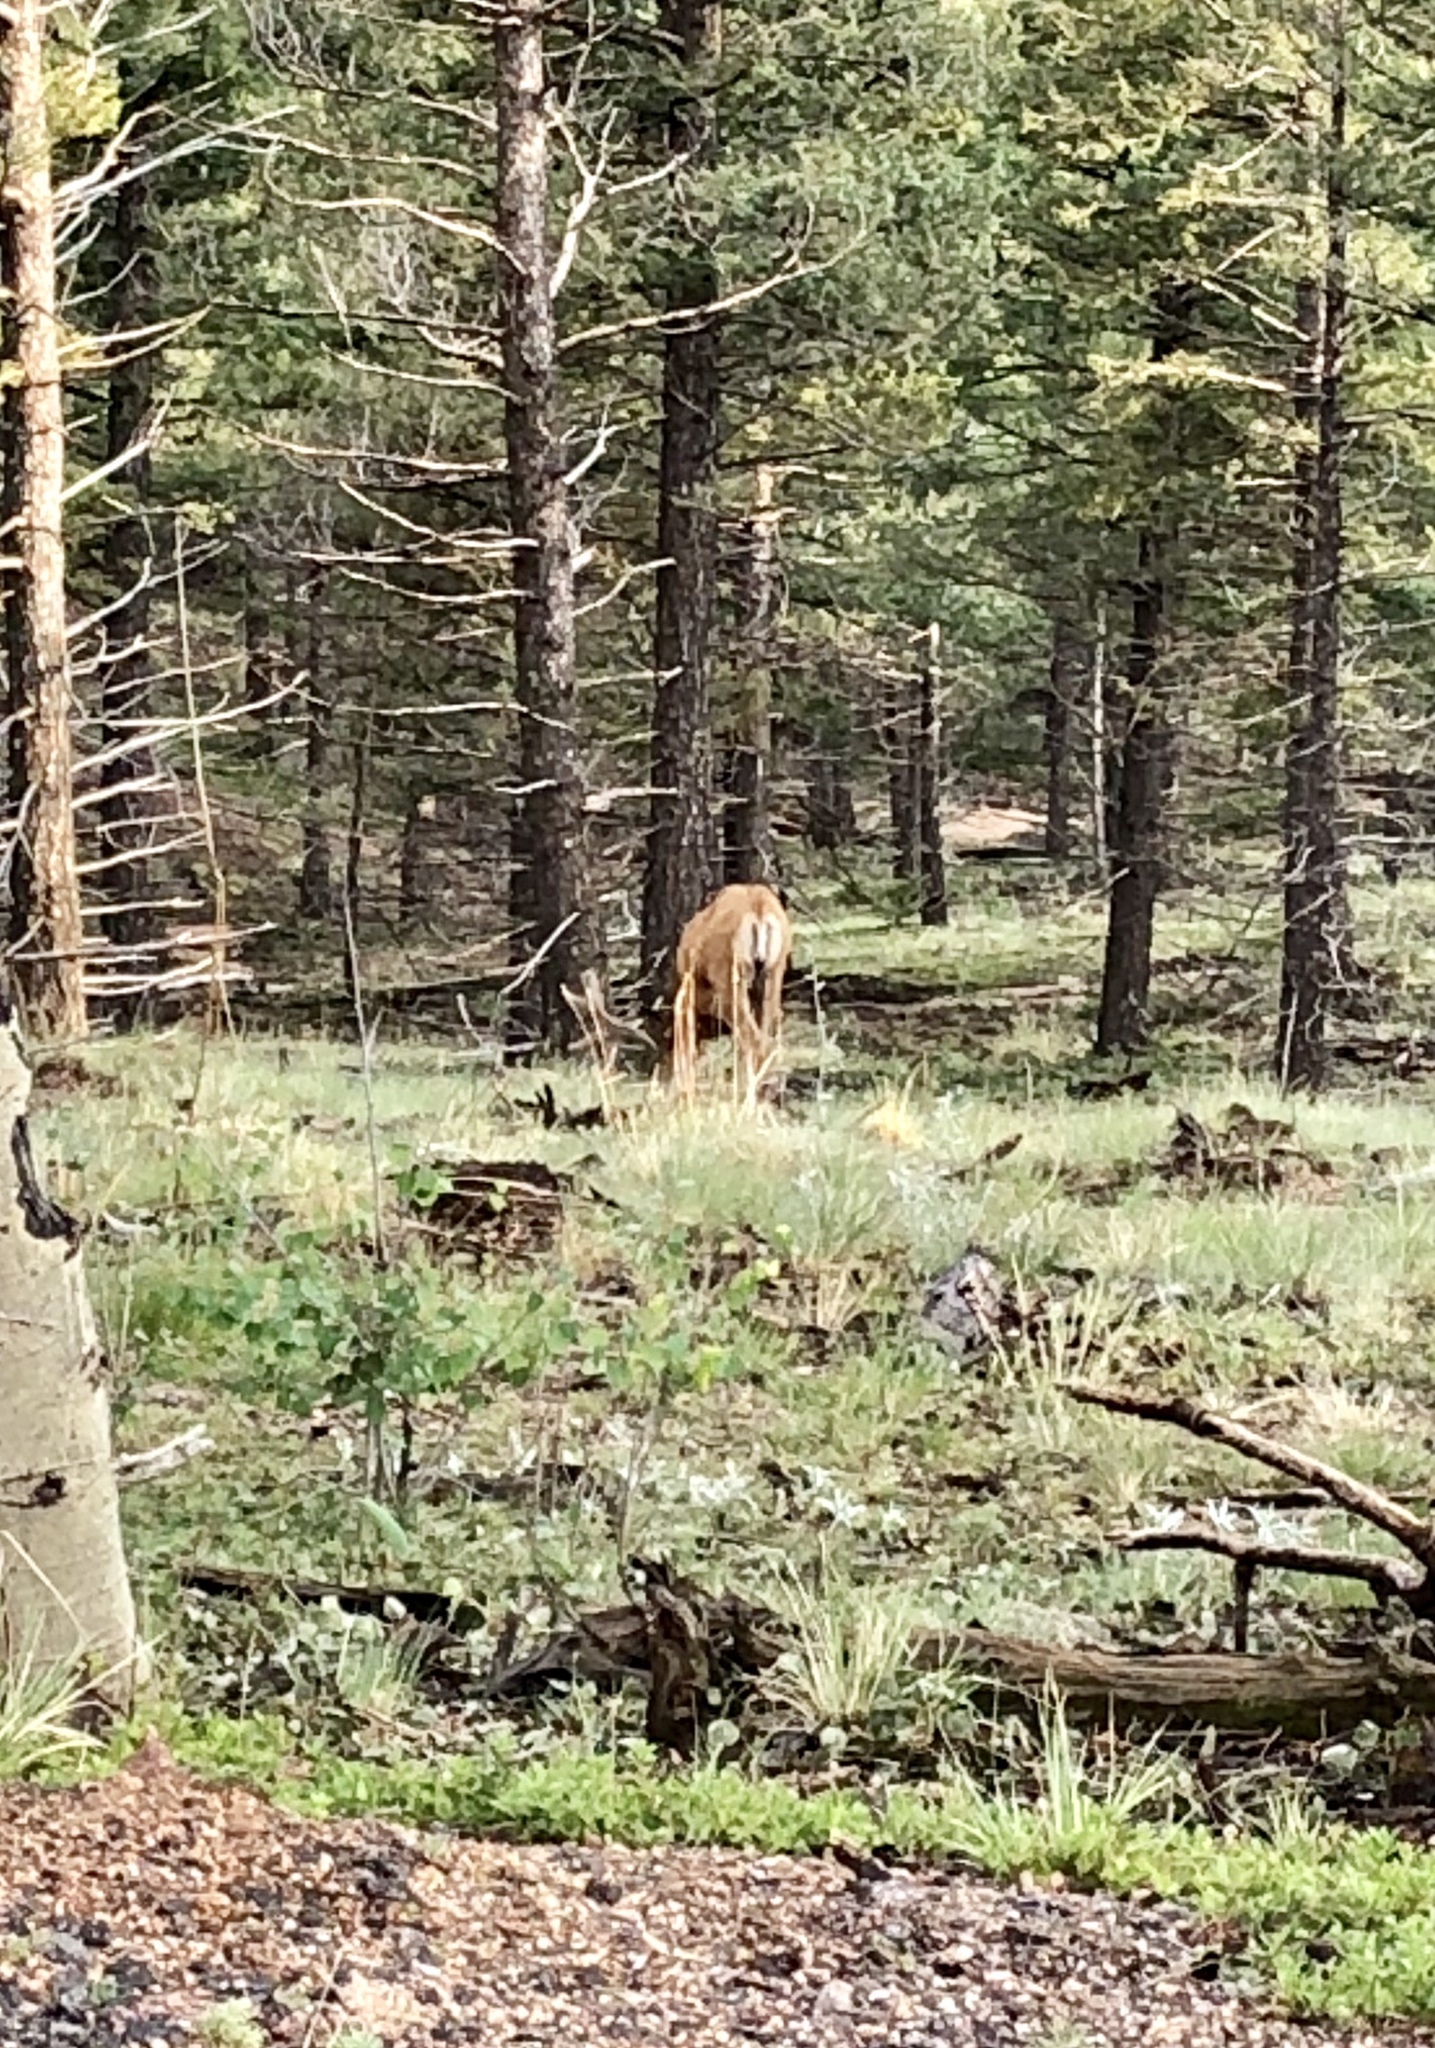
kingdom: Animalia
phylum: Chordata
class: Mammalia
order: Artiodactyla
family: Cervidae
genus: Odocoileus
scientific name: Odocoileus hemionus
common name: Mule deer
